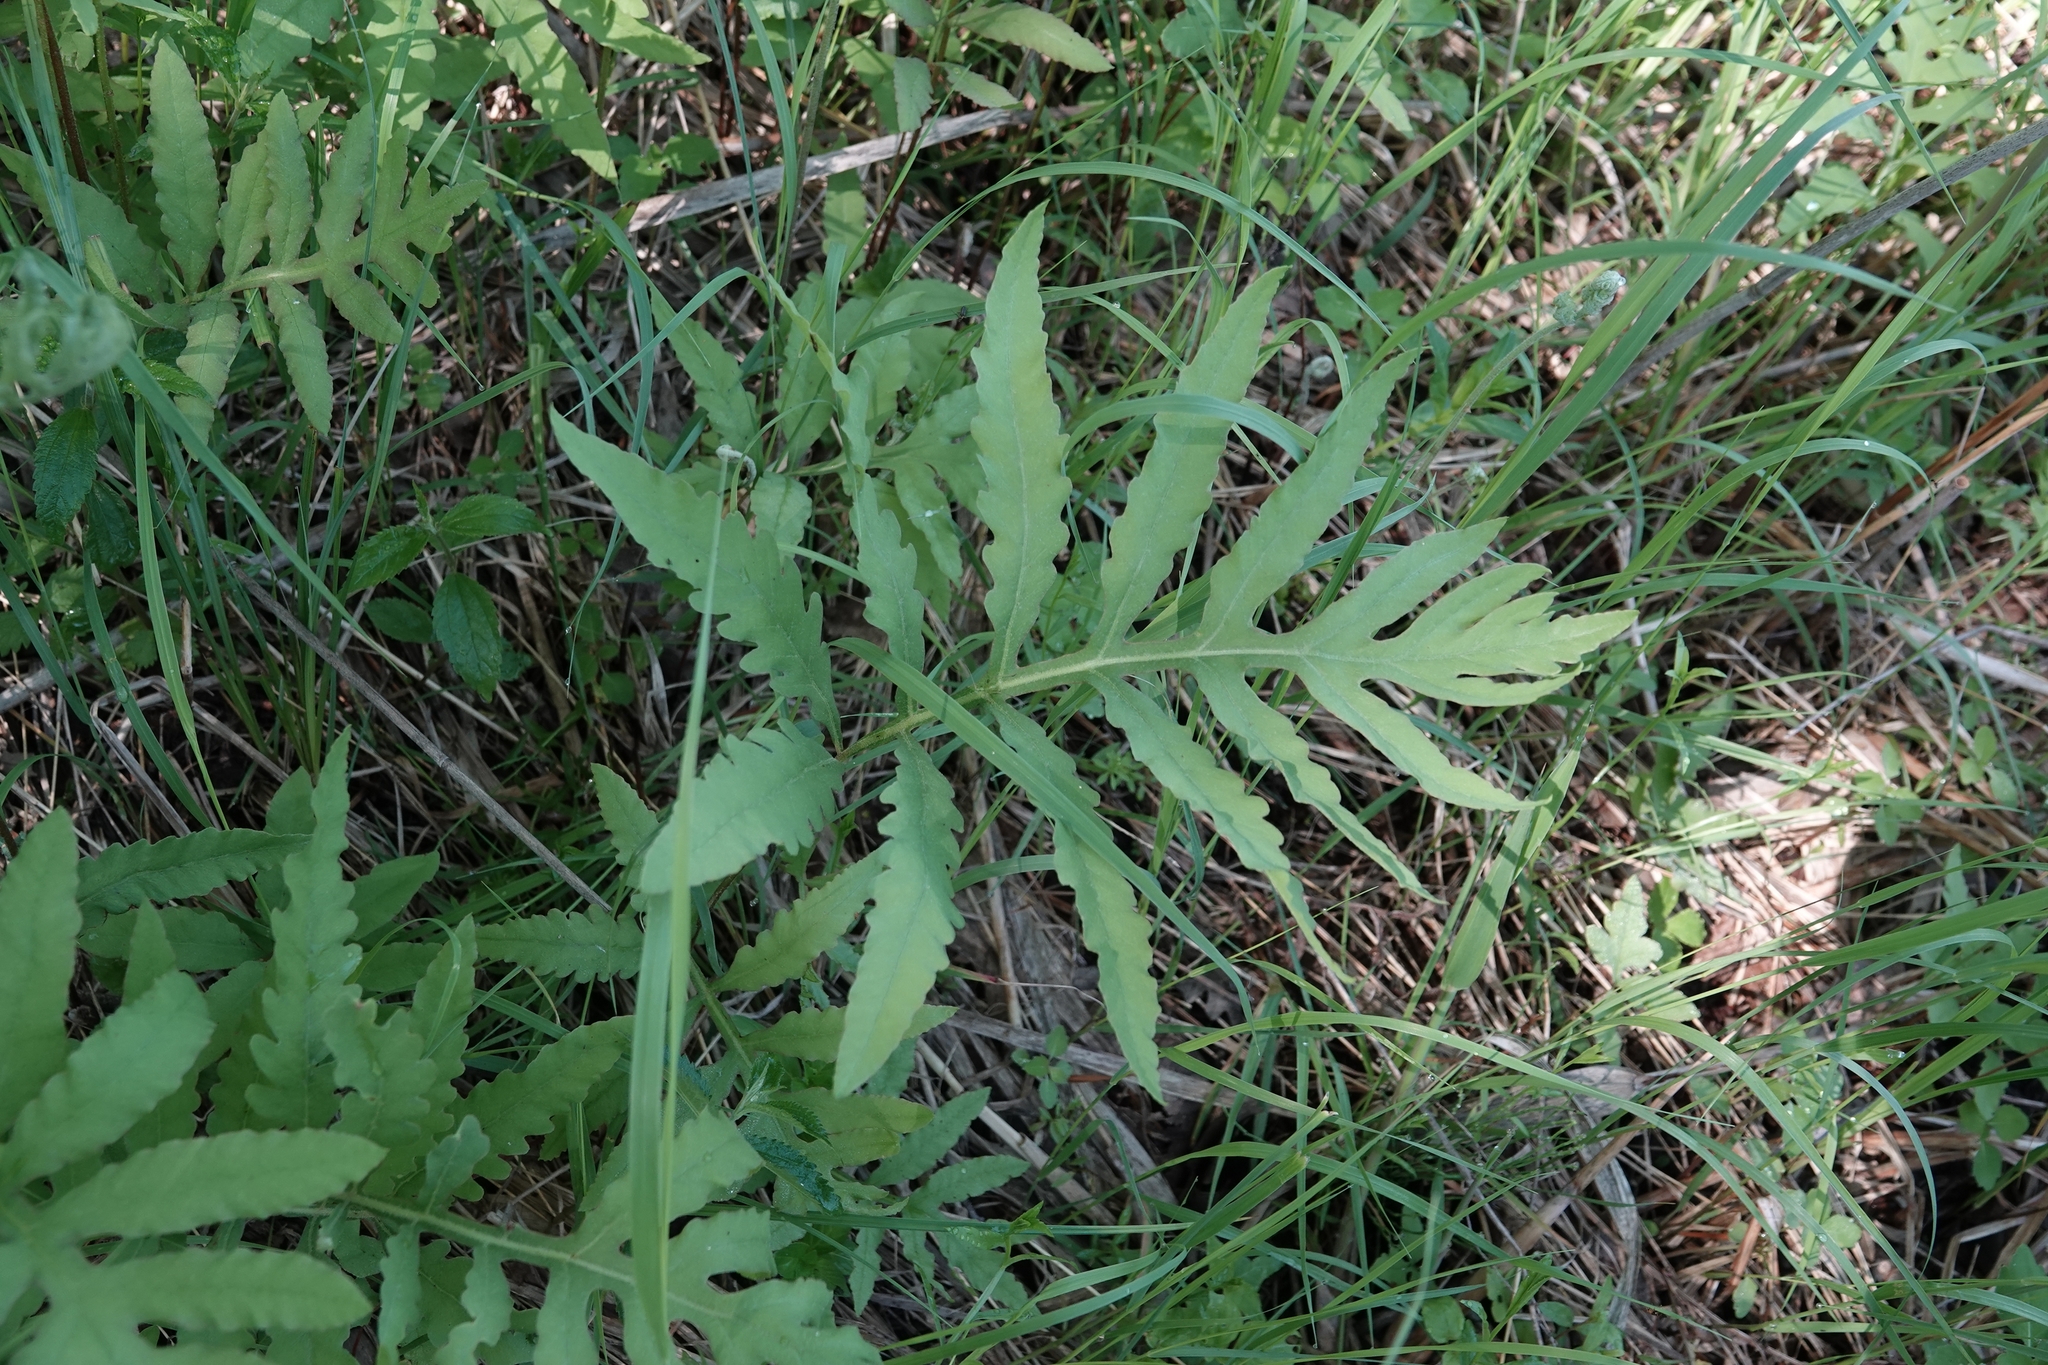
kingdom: Plantae
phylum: Tracheophyta
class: Polypodiopsida
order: Polypodiales
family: Onocleaceae
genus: Onoclea
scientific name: Onoclea sensibilis
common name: Sensitive fern
